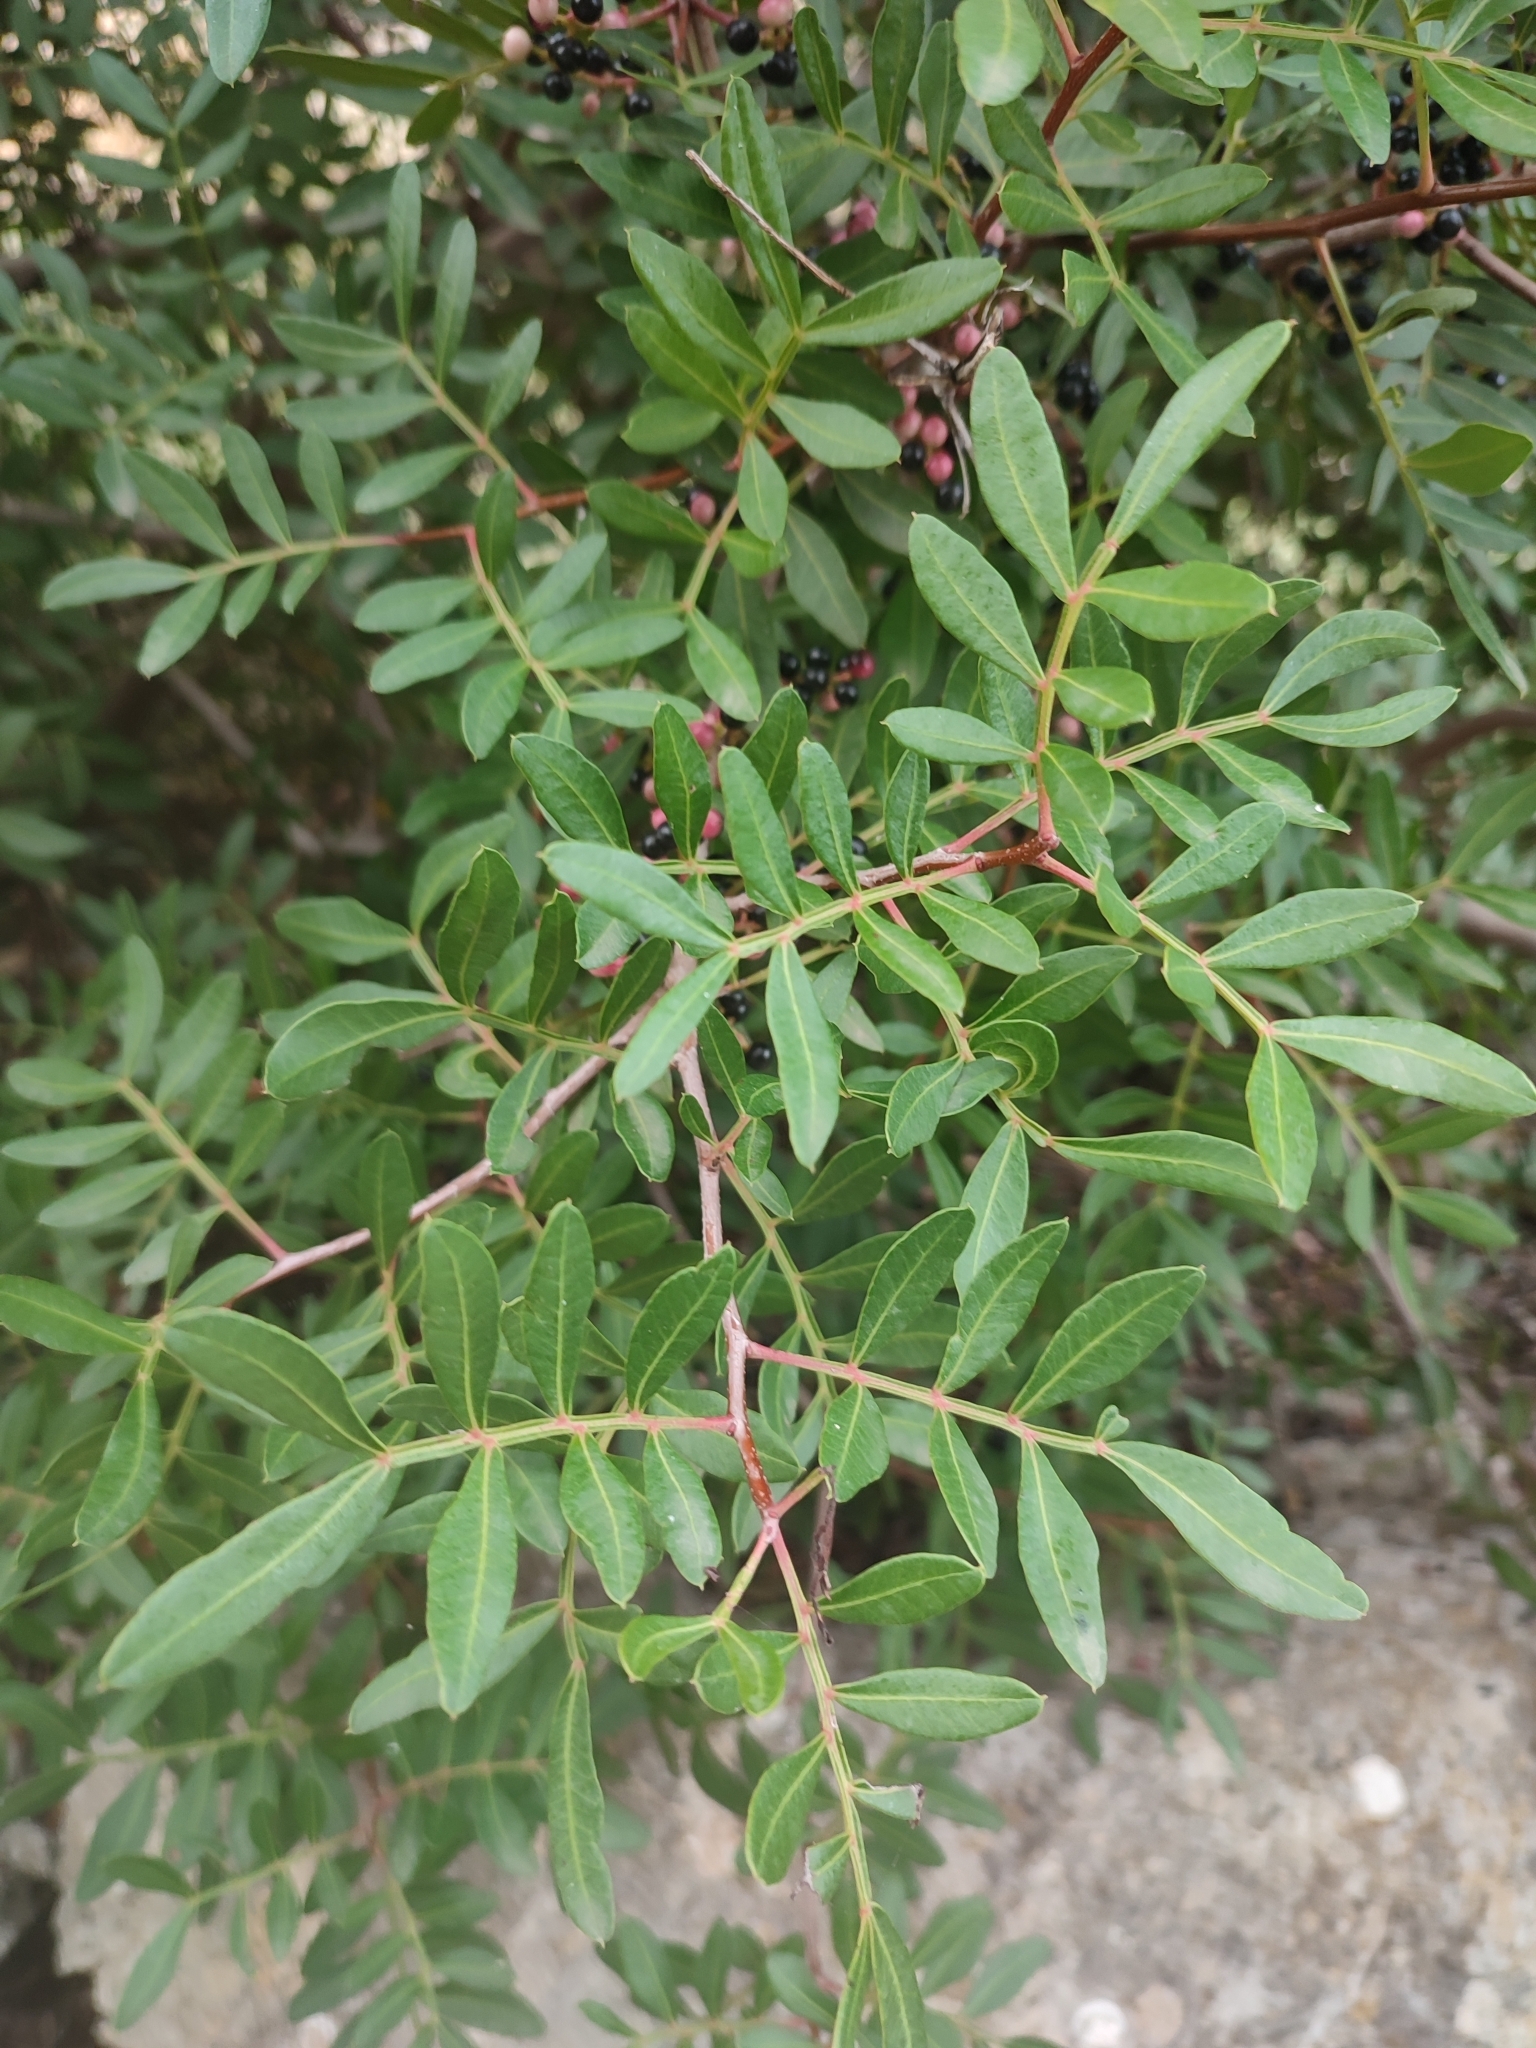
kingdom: Plantae
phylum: Tracheophyta
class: Magnoliopsida
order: Sapindales
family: Anacardiaceae
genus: Pistacia
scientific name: Pistacia lentiscus
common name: Lentisk
